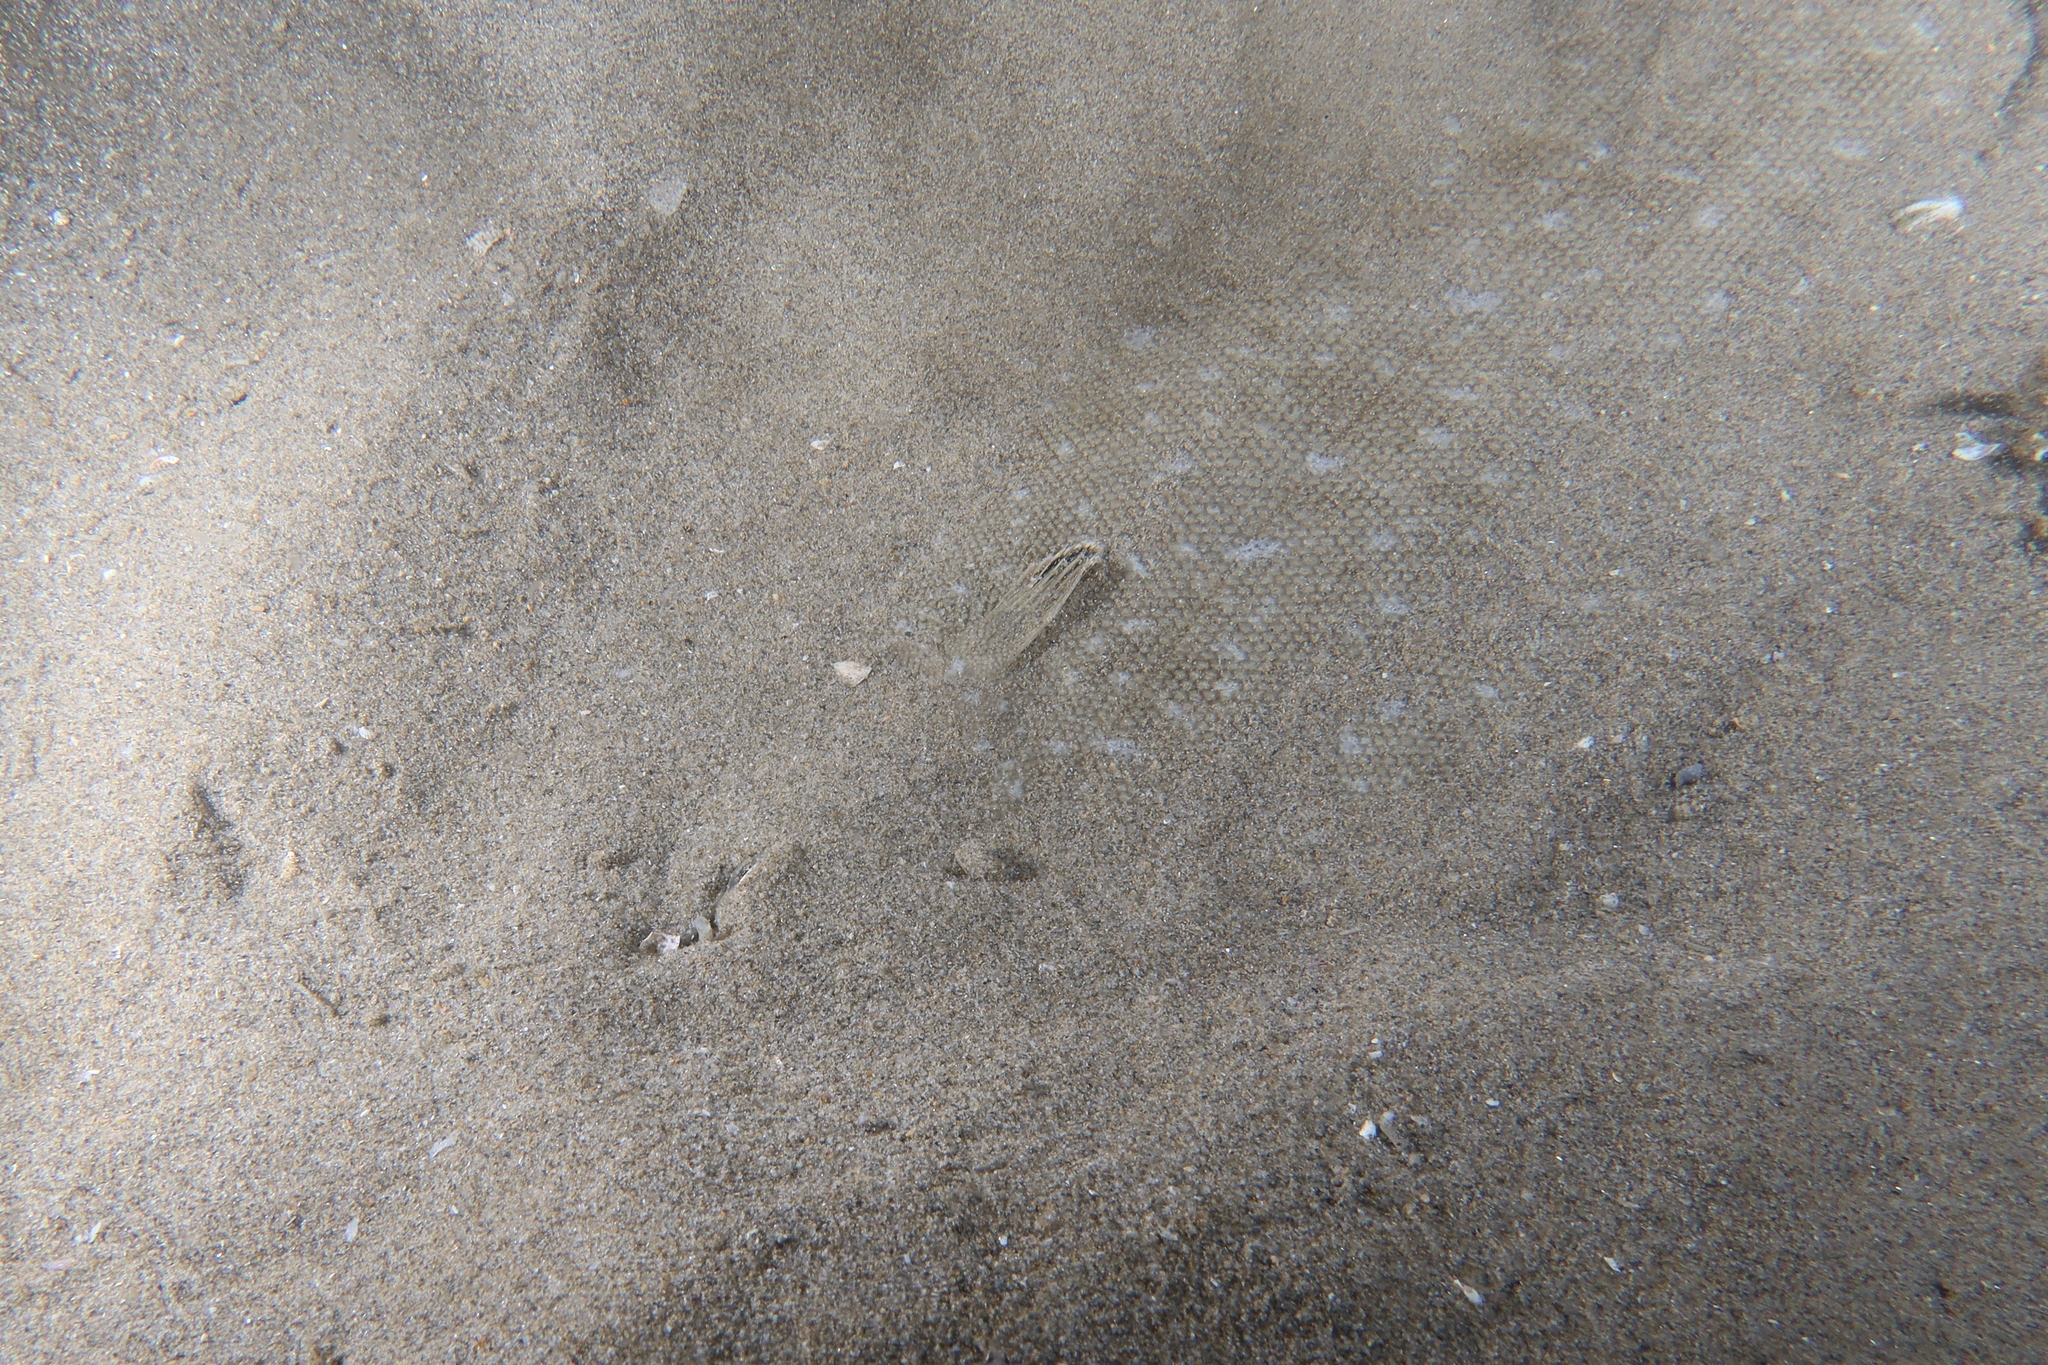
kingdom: Animalia
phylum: Chordata
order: Pleuronectiformes
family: Soleidae
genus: Solea
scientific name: Solea senegalensis
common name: Senegalese sole
